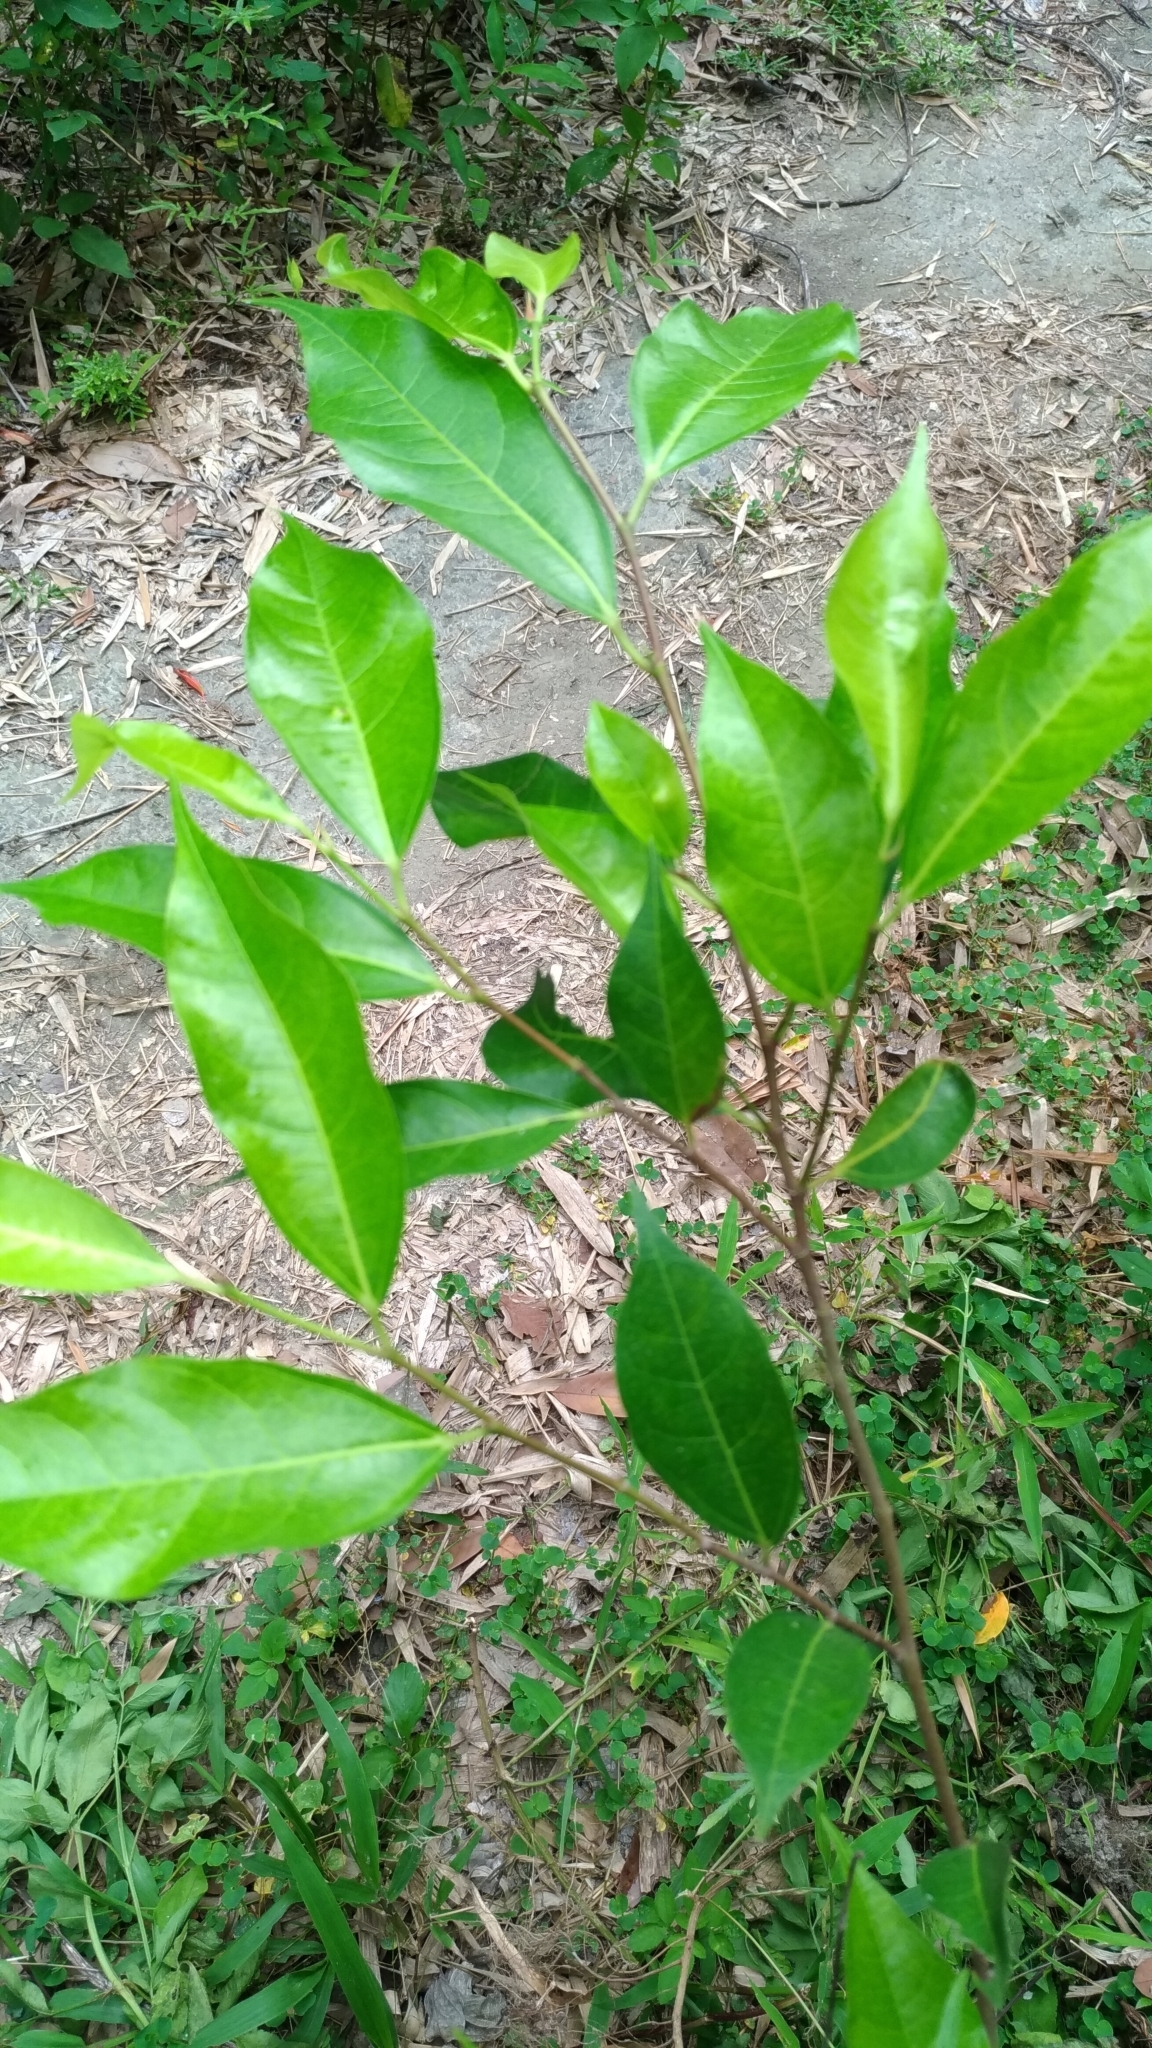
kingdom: Plantae
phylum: Tracheophyta
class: Magnoliopsida
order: Rosales
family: Moraceae
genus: Ficus
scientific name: Ficus ampelos
